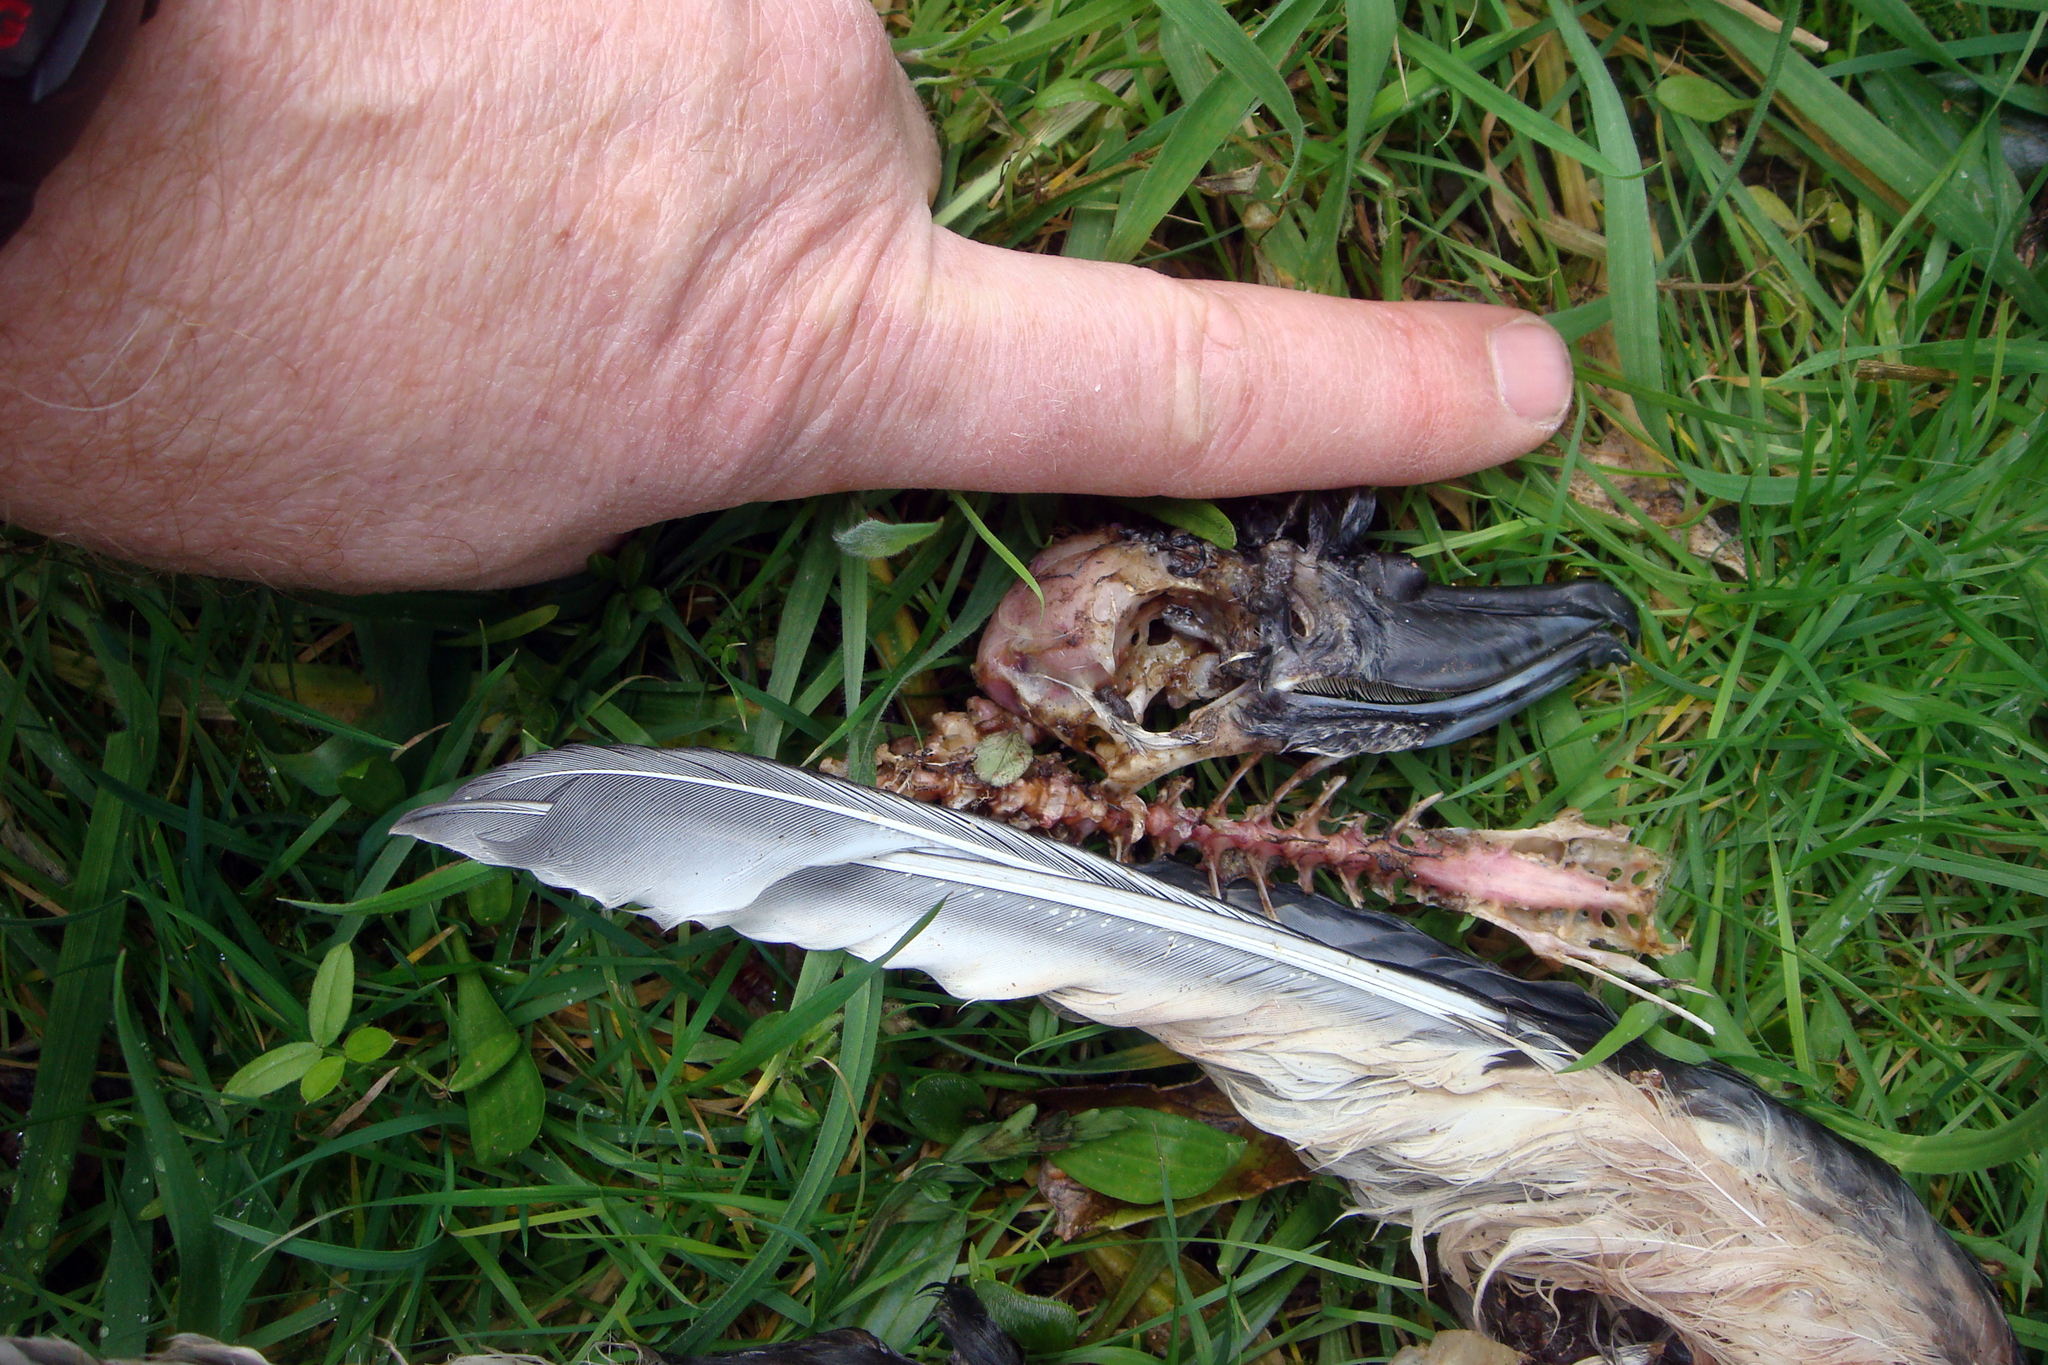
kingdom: Animalia
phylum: Chordata
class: Aves
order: Procellariiformes
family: Procellariidae
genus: Pachyptila
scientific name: Pachyptila vittata
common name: Broad-billed prion
